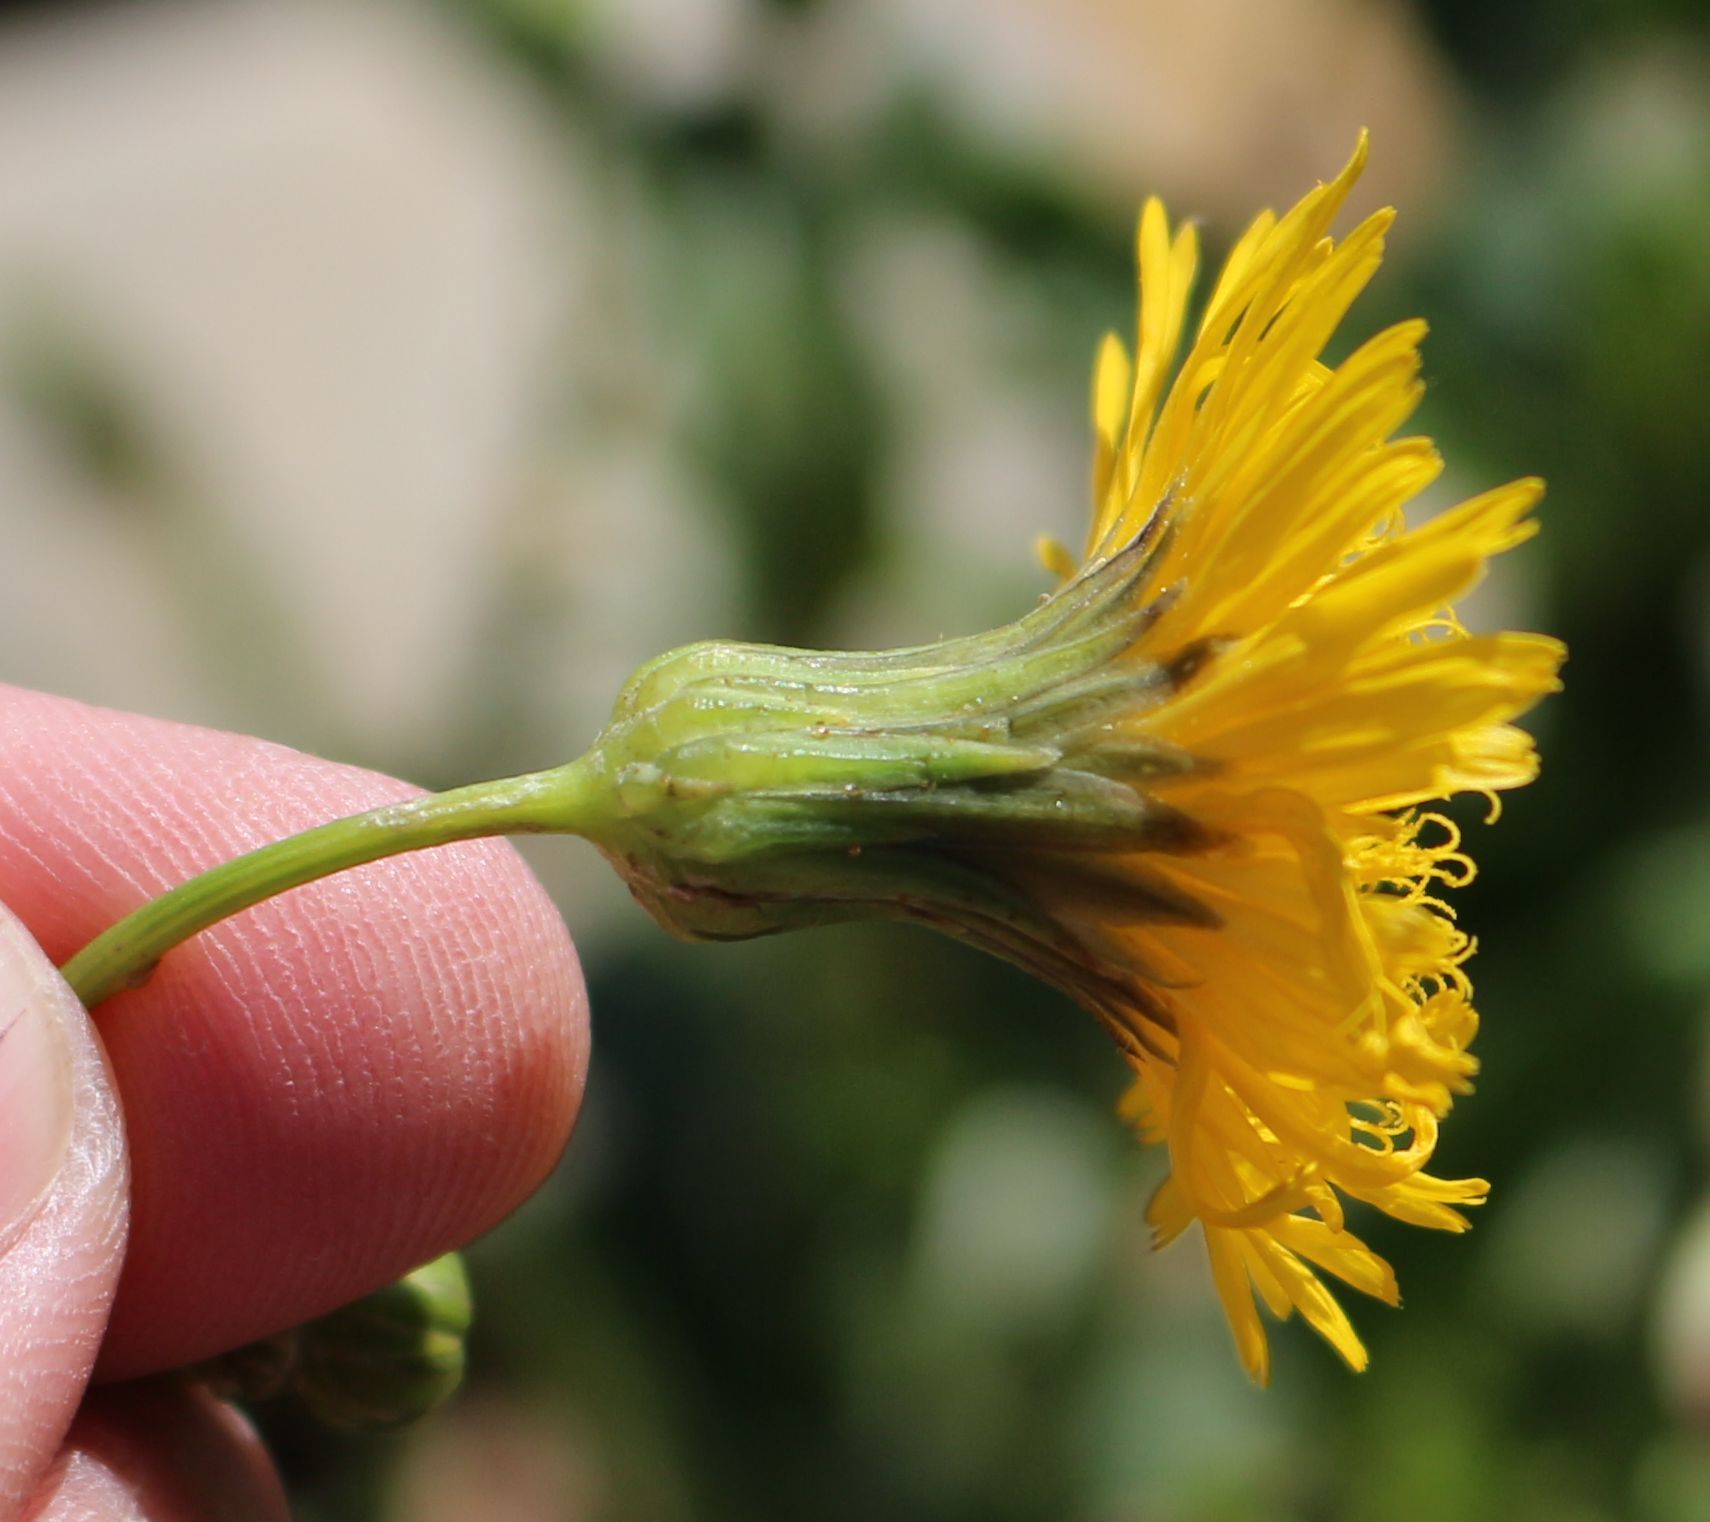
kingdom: Plantae
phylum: Tracheophyta
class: Magnoliopsida
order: Asterales
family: Asteraceae
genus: Sonchus
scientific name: Sonchus arvensis
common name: Perennial sow-thistle
